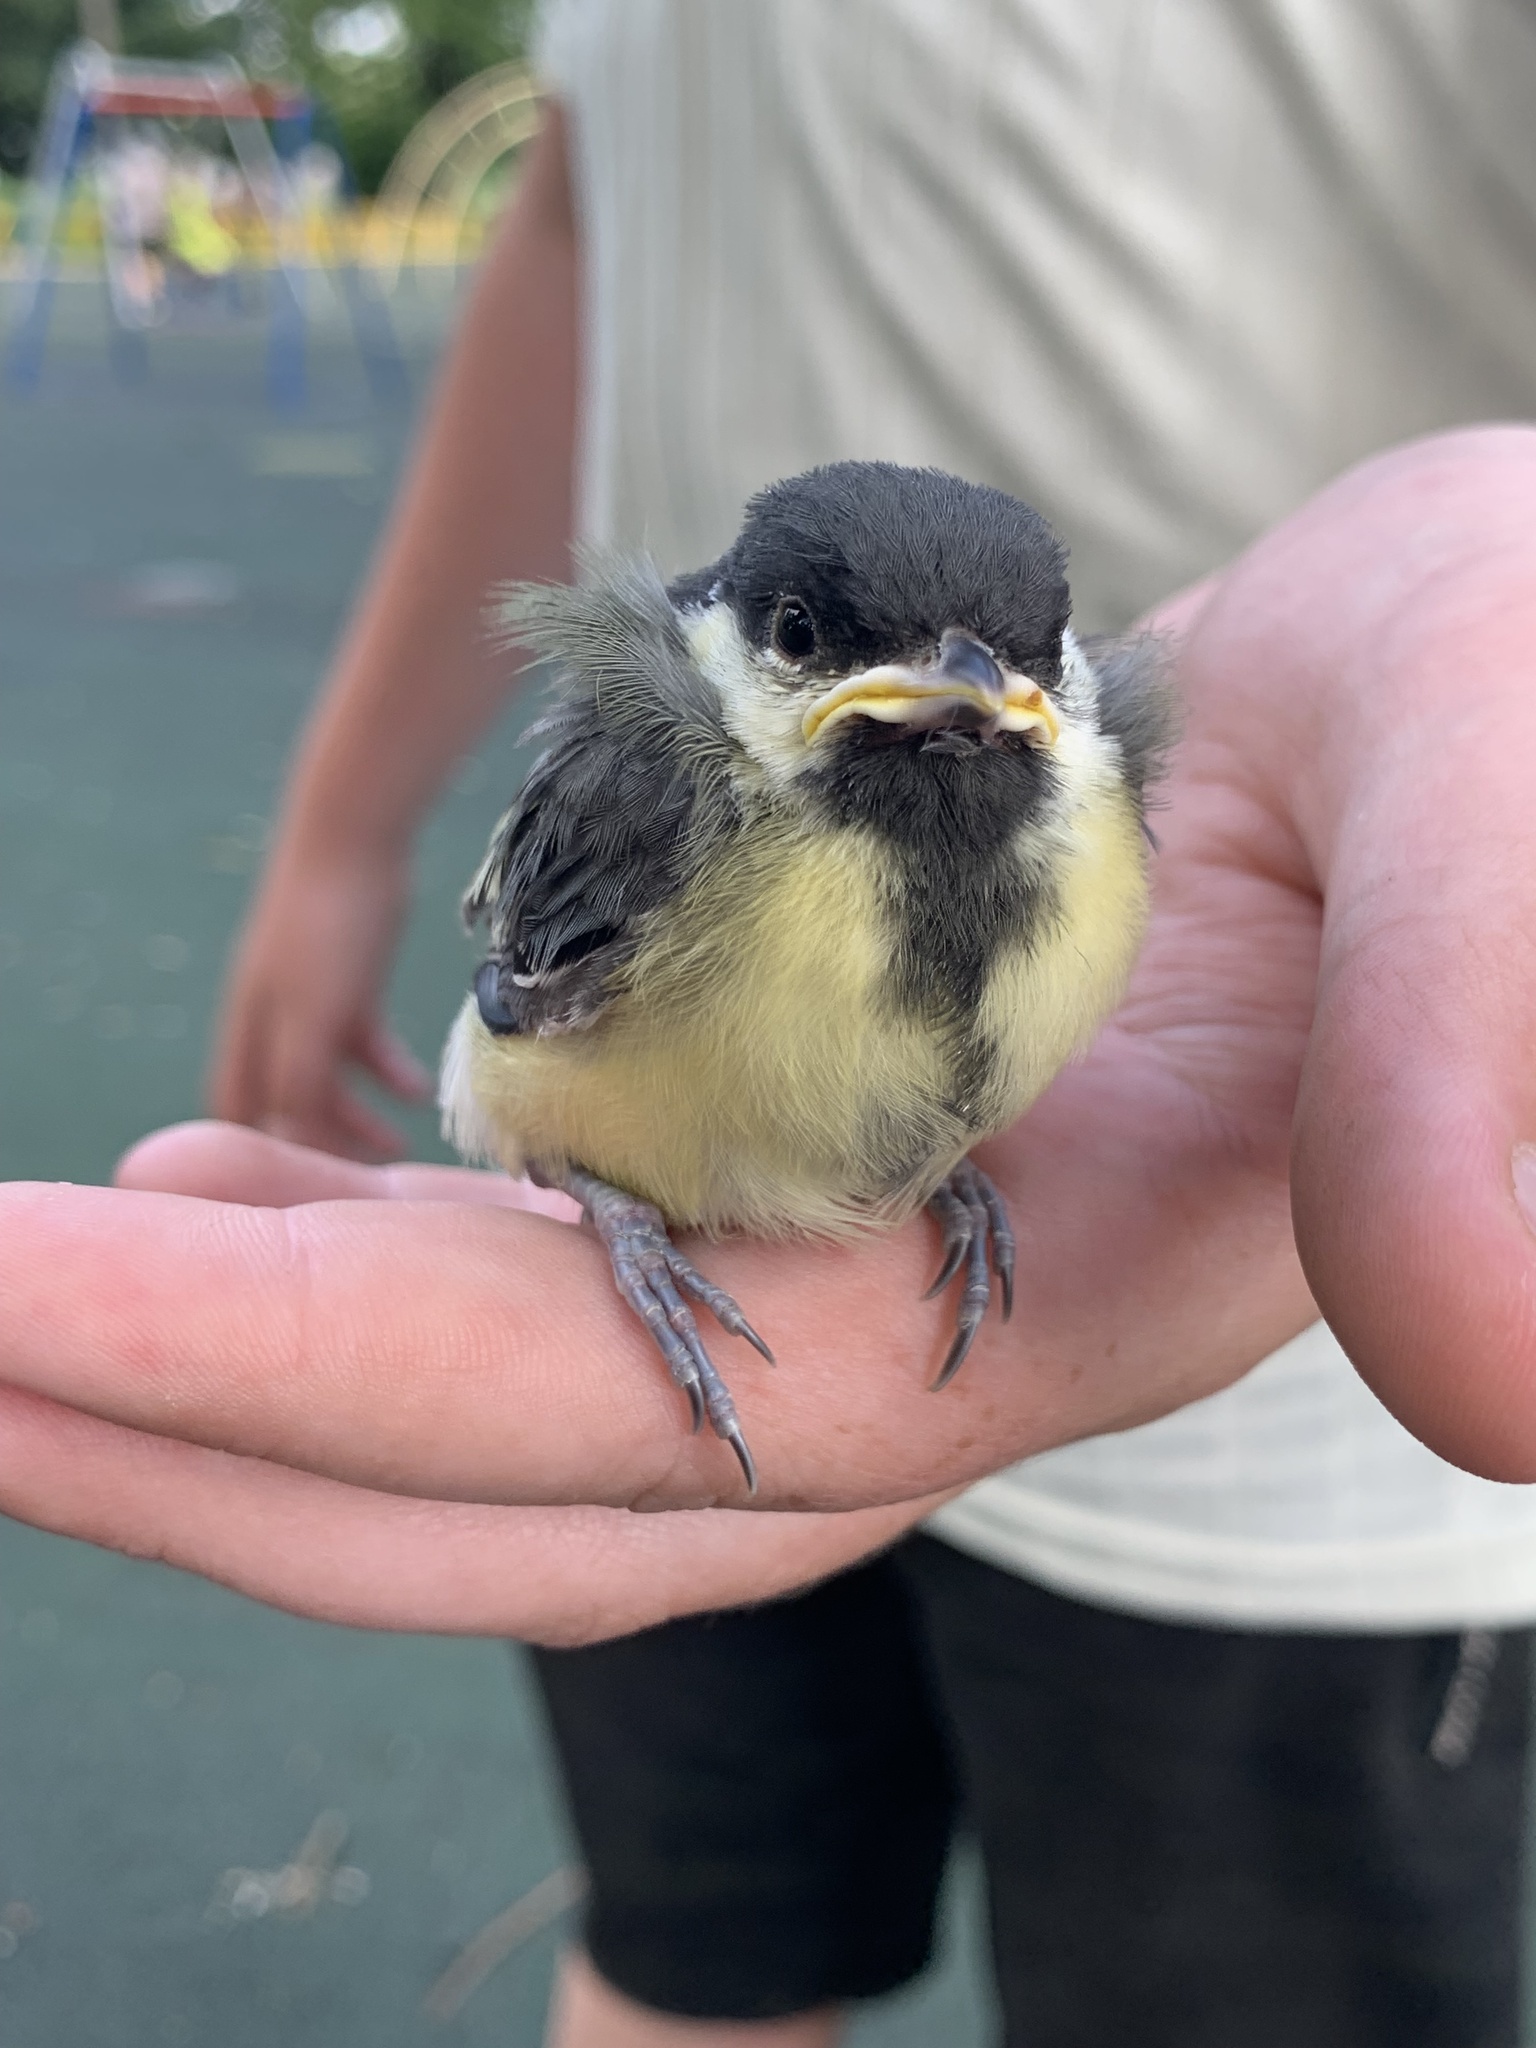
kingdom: Animalia
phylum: Chordata
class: Aves
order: Passeriformes
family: Paridae
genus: Parus
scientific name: Parus major
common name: Great tit
